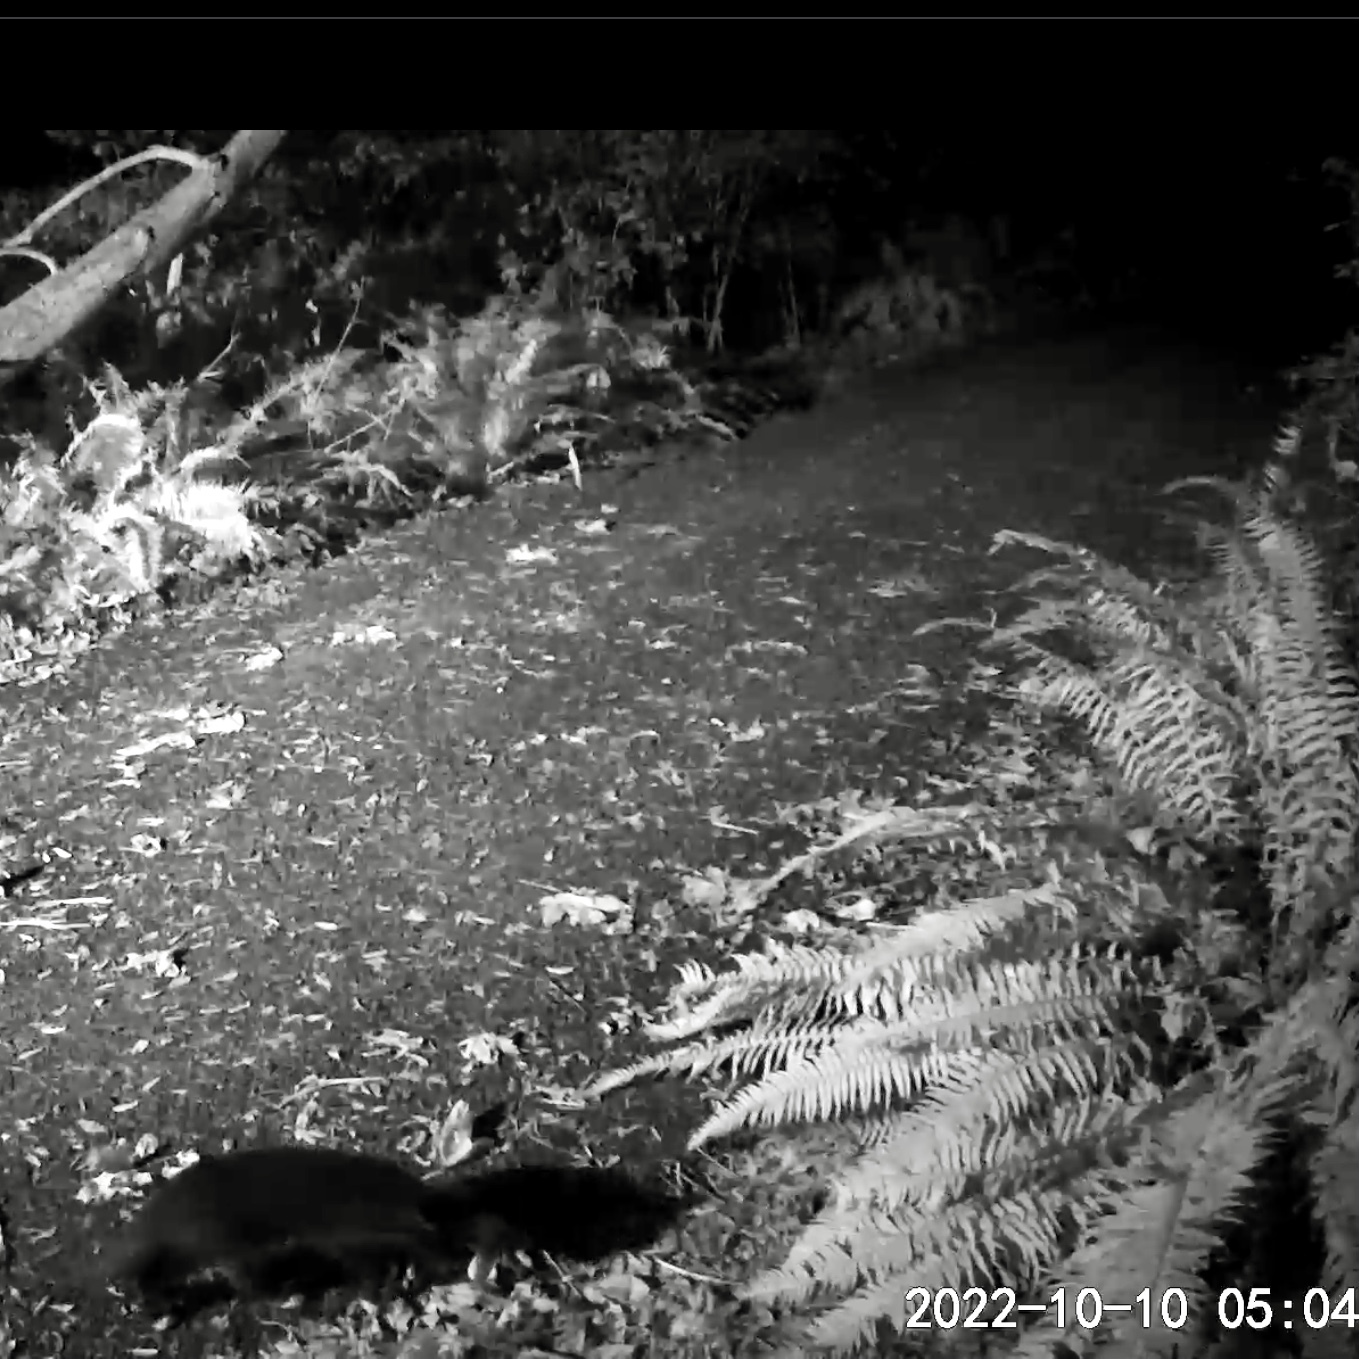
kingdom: Animalia
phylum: Chordata
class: Mammalia
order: Carnivora
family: Felidae
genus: Felis
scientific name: Felis catus
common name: Domestic cat
